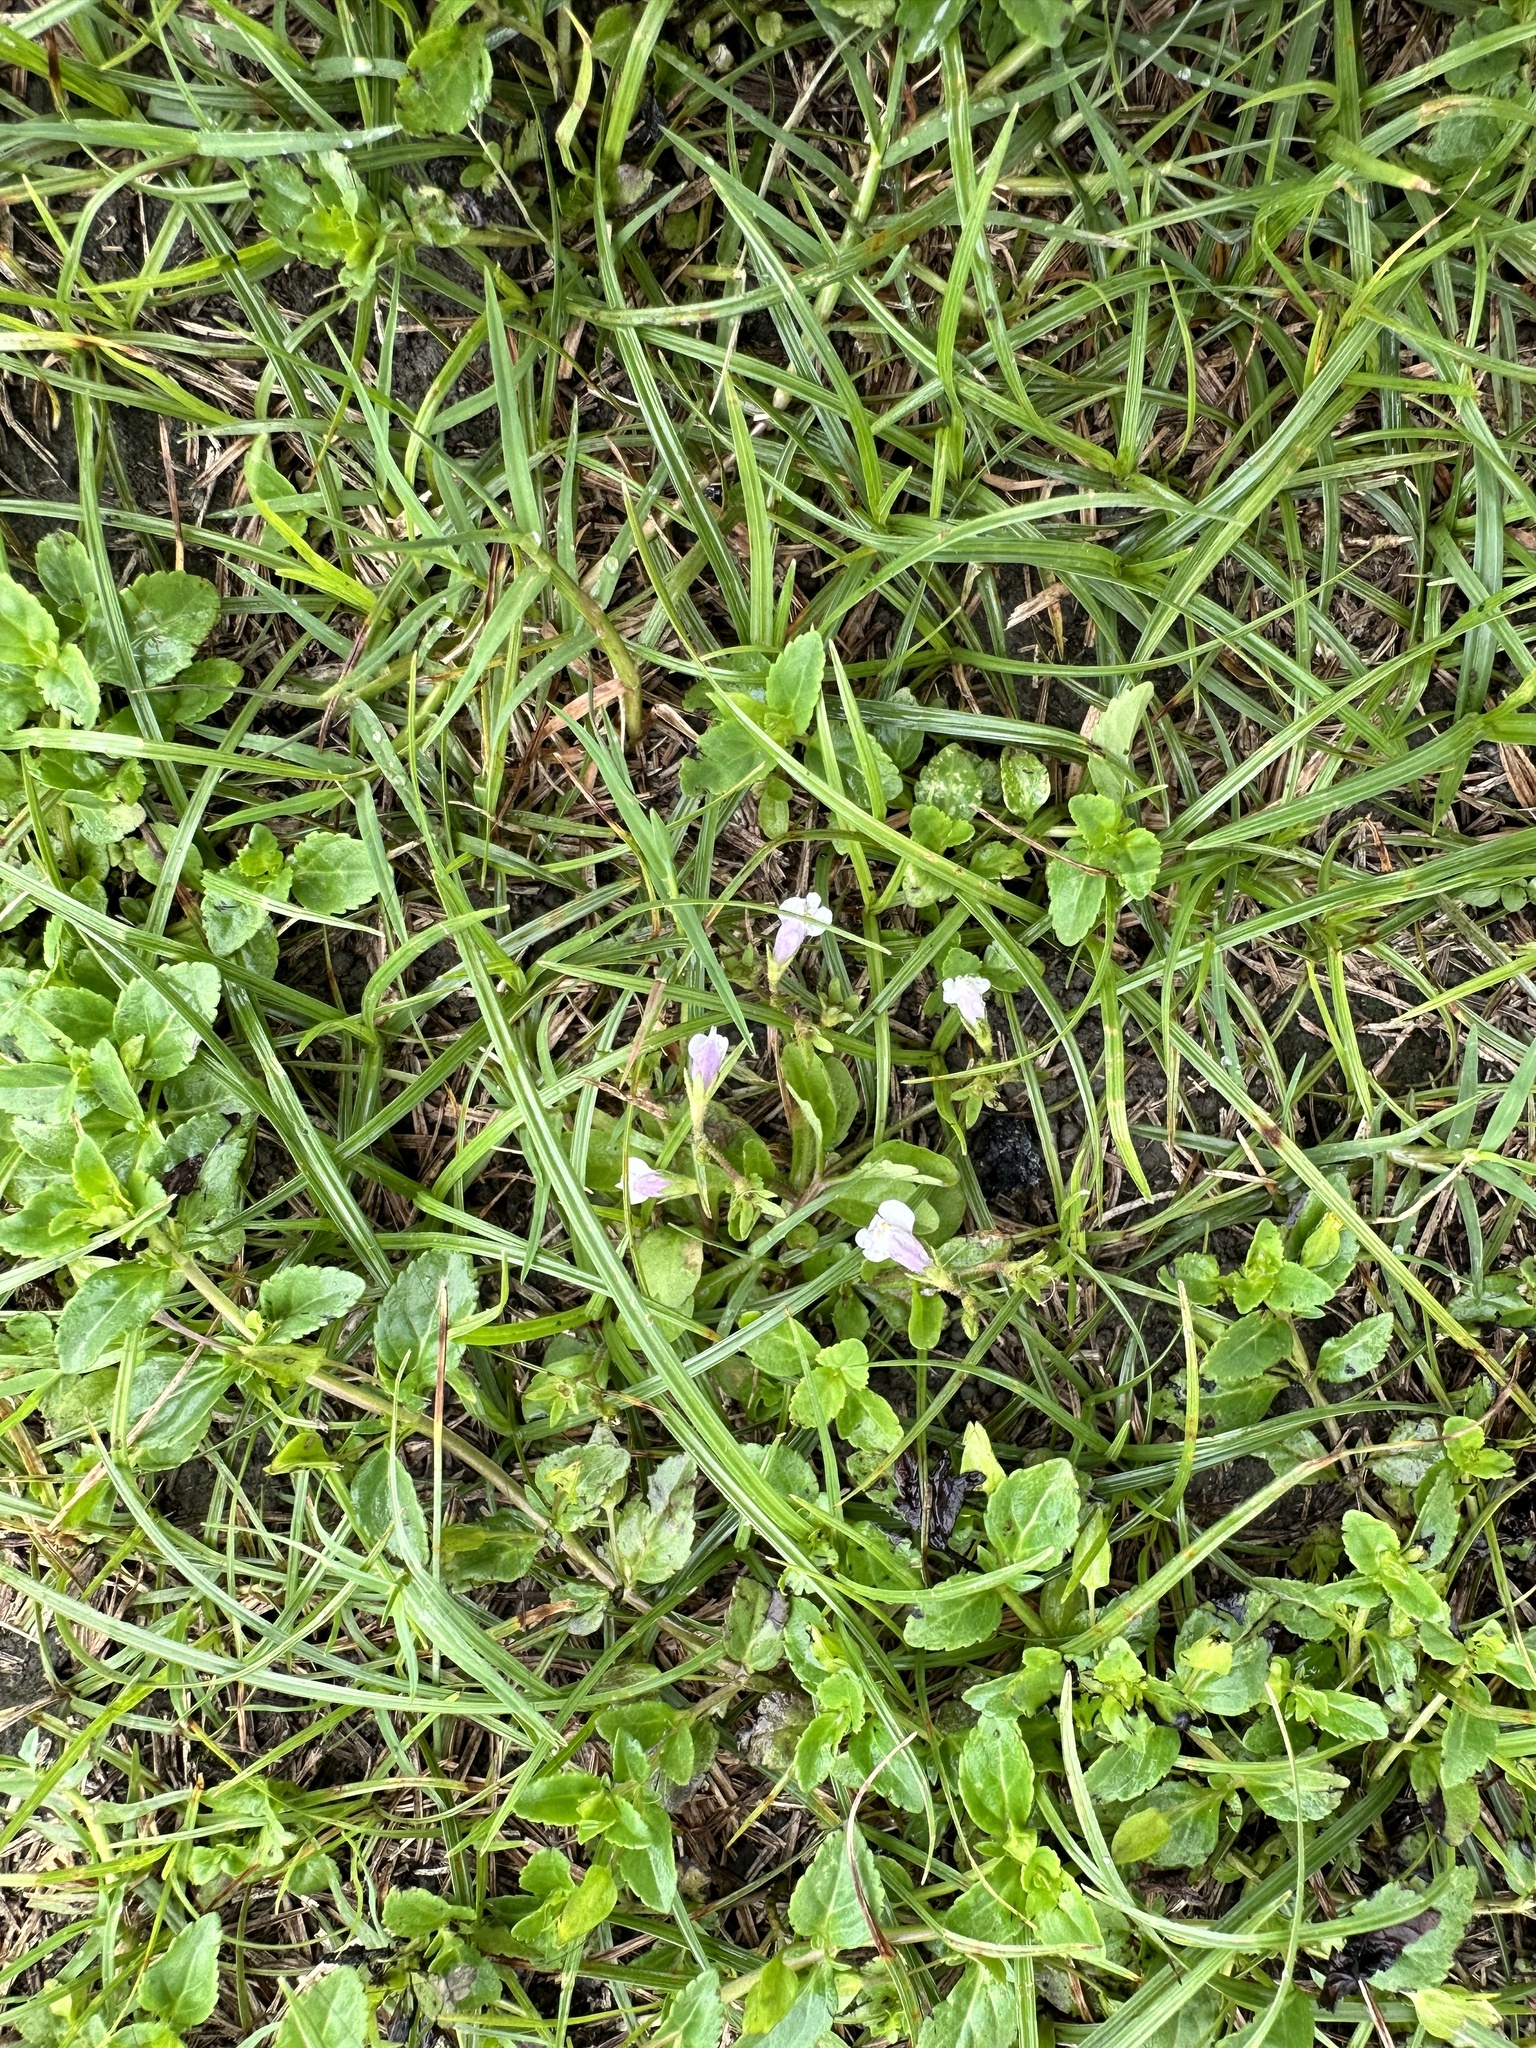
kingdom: Plantae
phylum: Tracheophyta
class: Magnoliopsida
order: Lamiales
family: Mazaceae
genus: Mazus
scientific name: Mazus pumilus
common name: Japanese mazus
